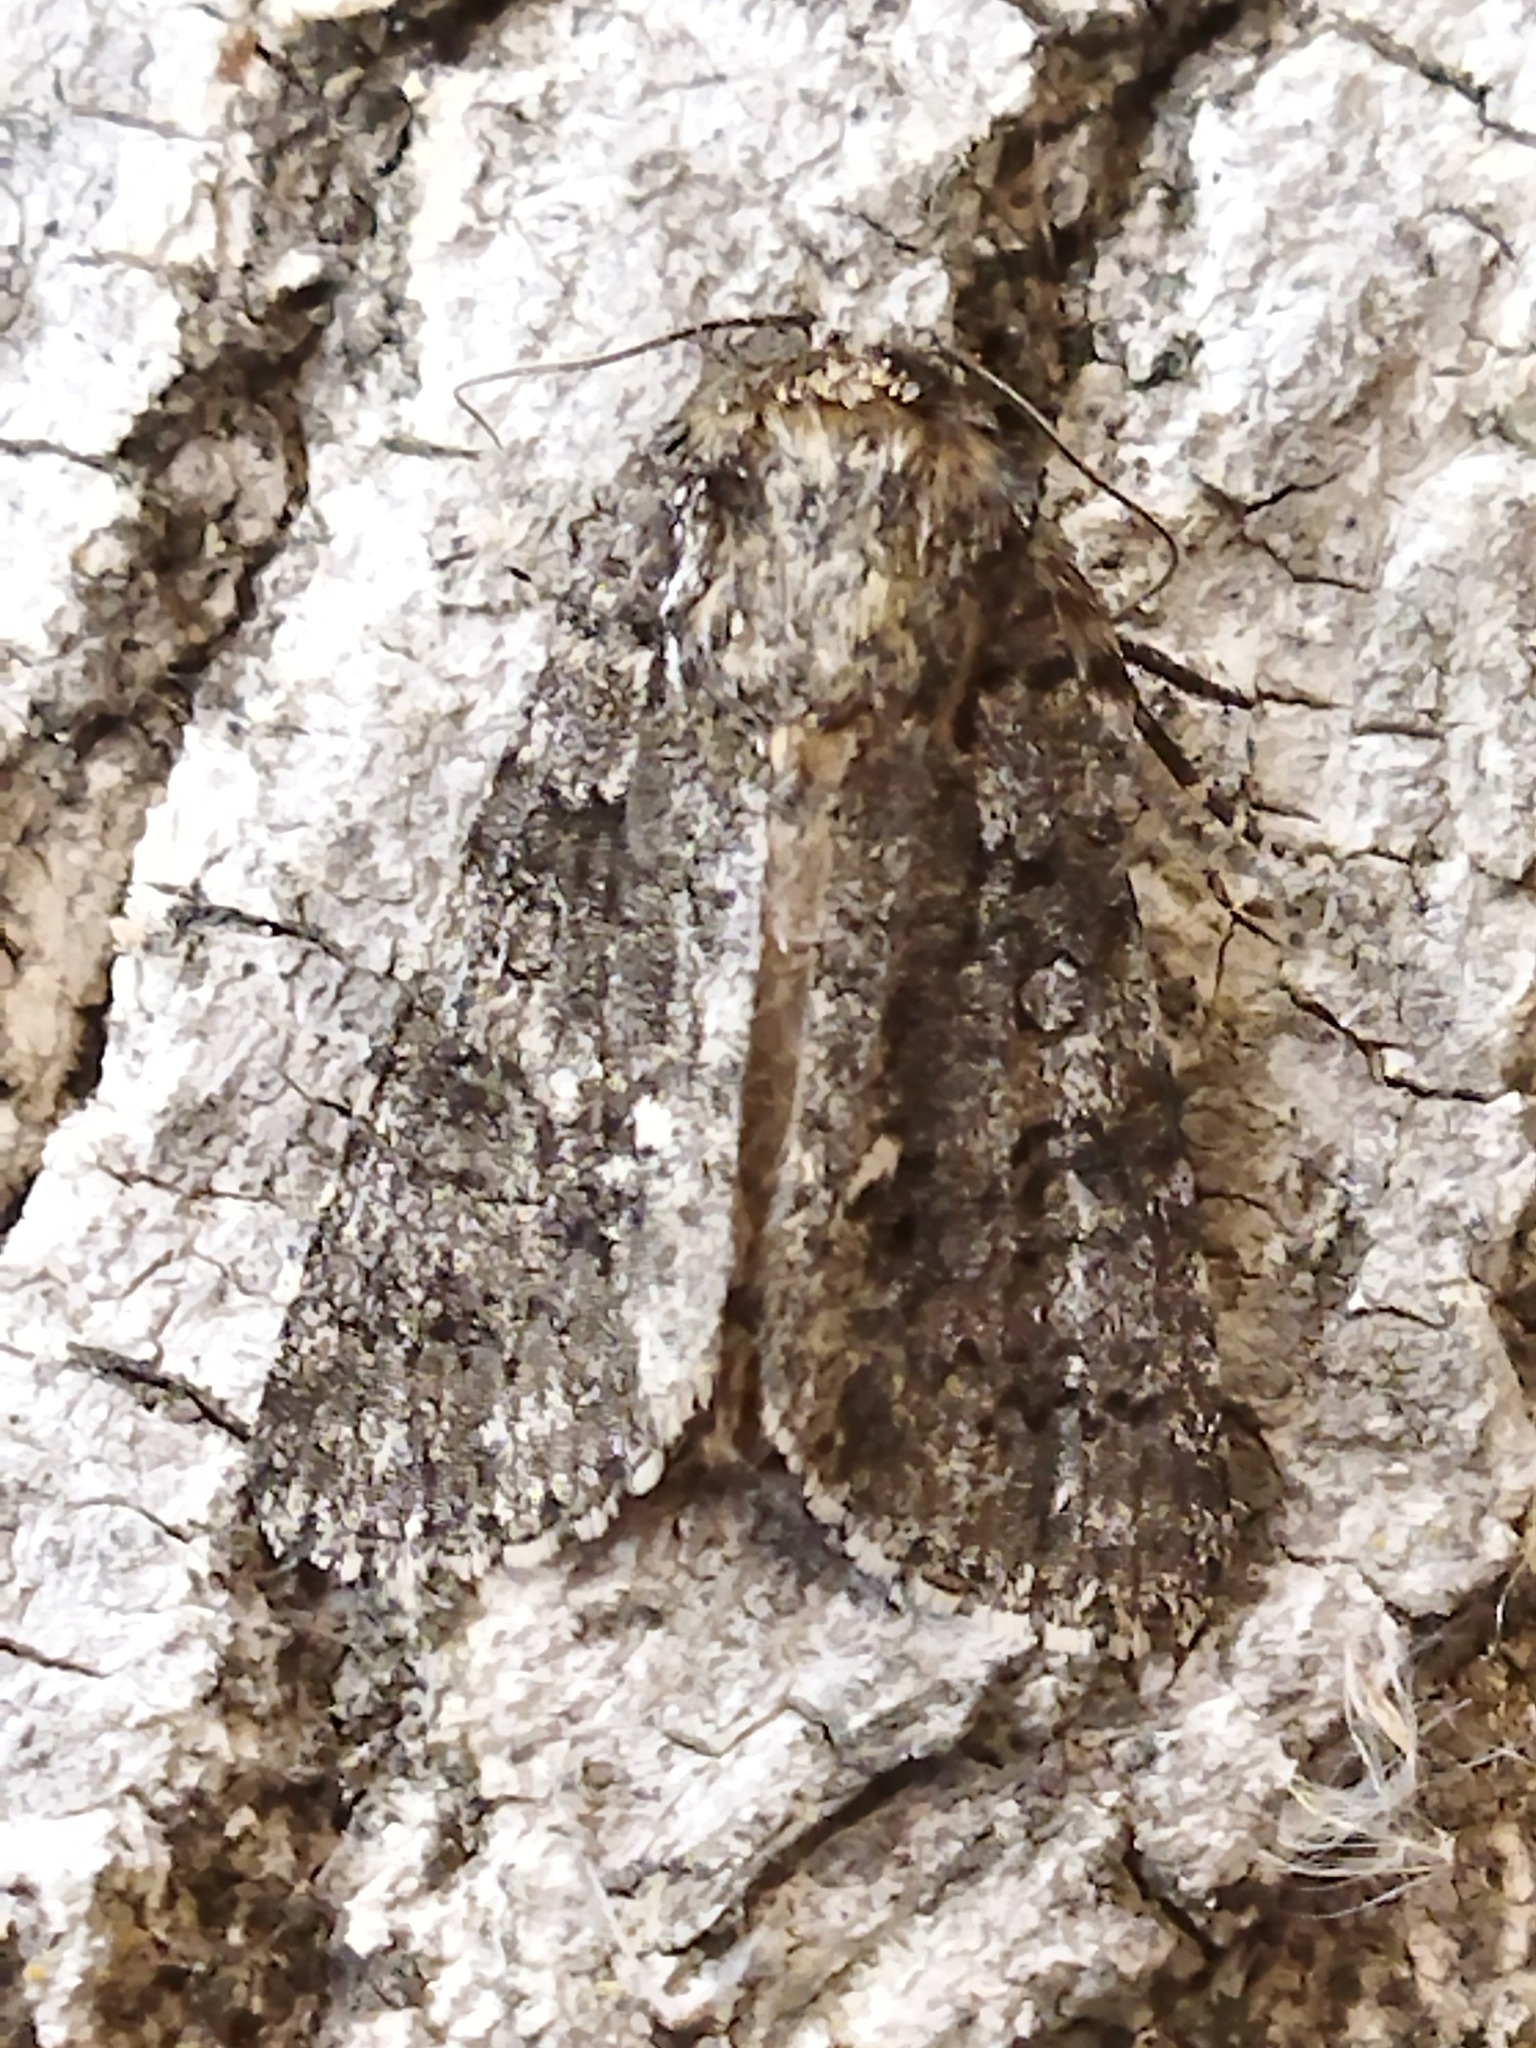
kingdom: Animalia
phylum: Arthropoda
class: Insecta
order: Lepidoptera
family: Noctuidae
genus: Acronicta
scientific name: Acronicta rumicis
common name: Knot grass
